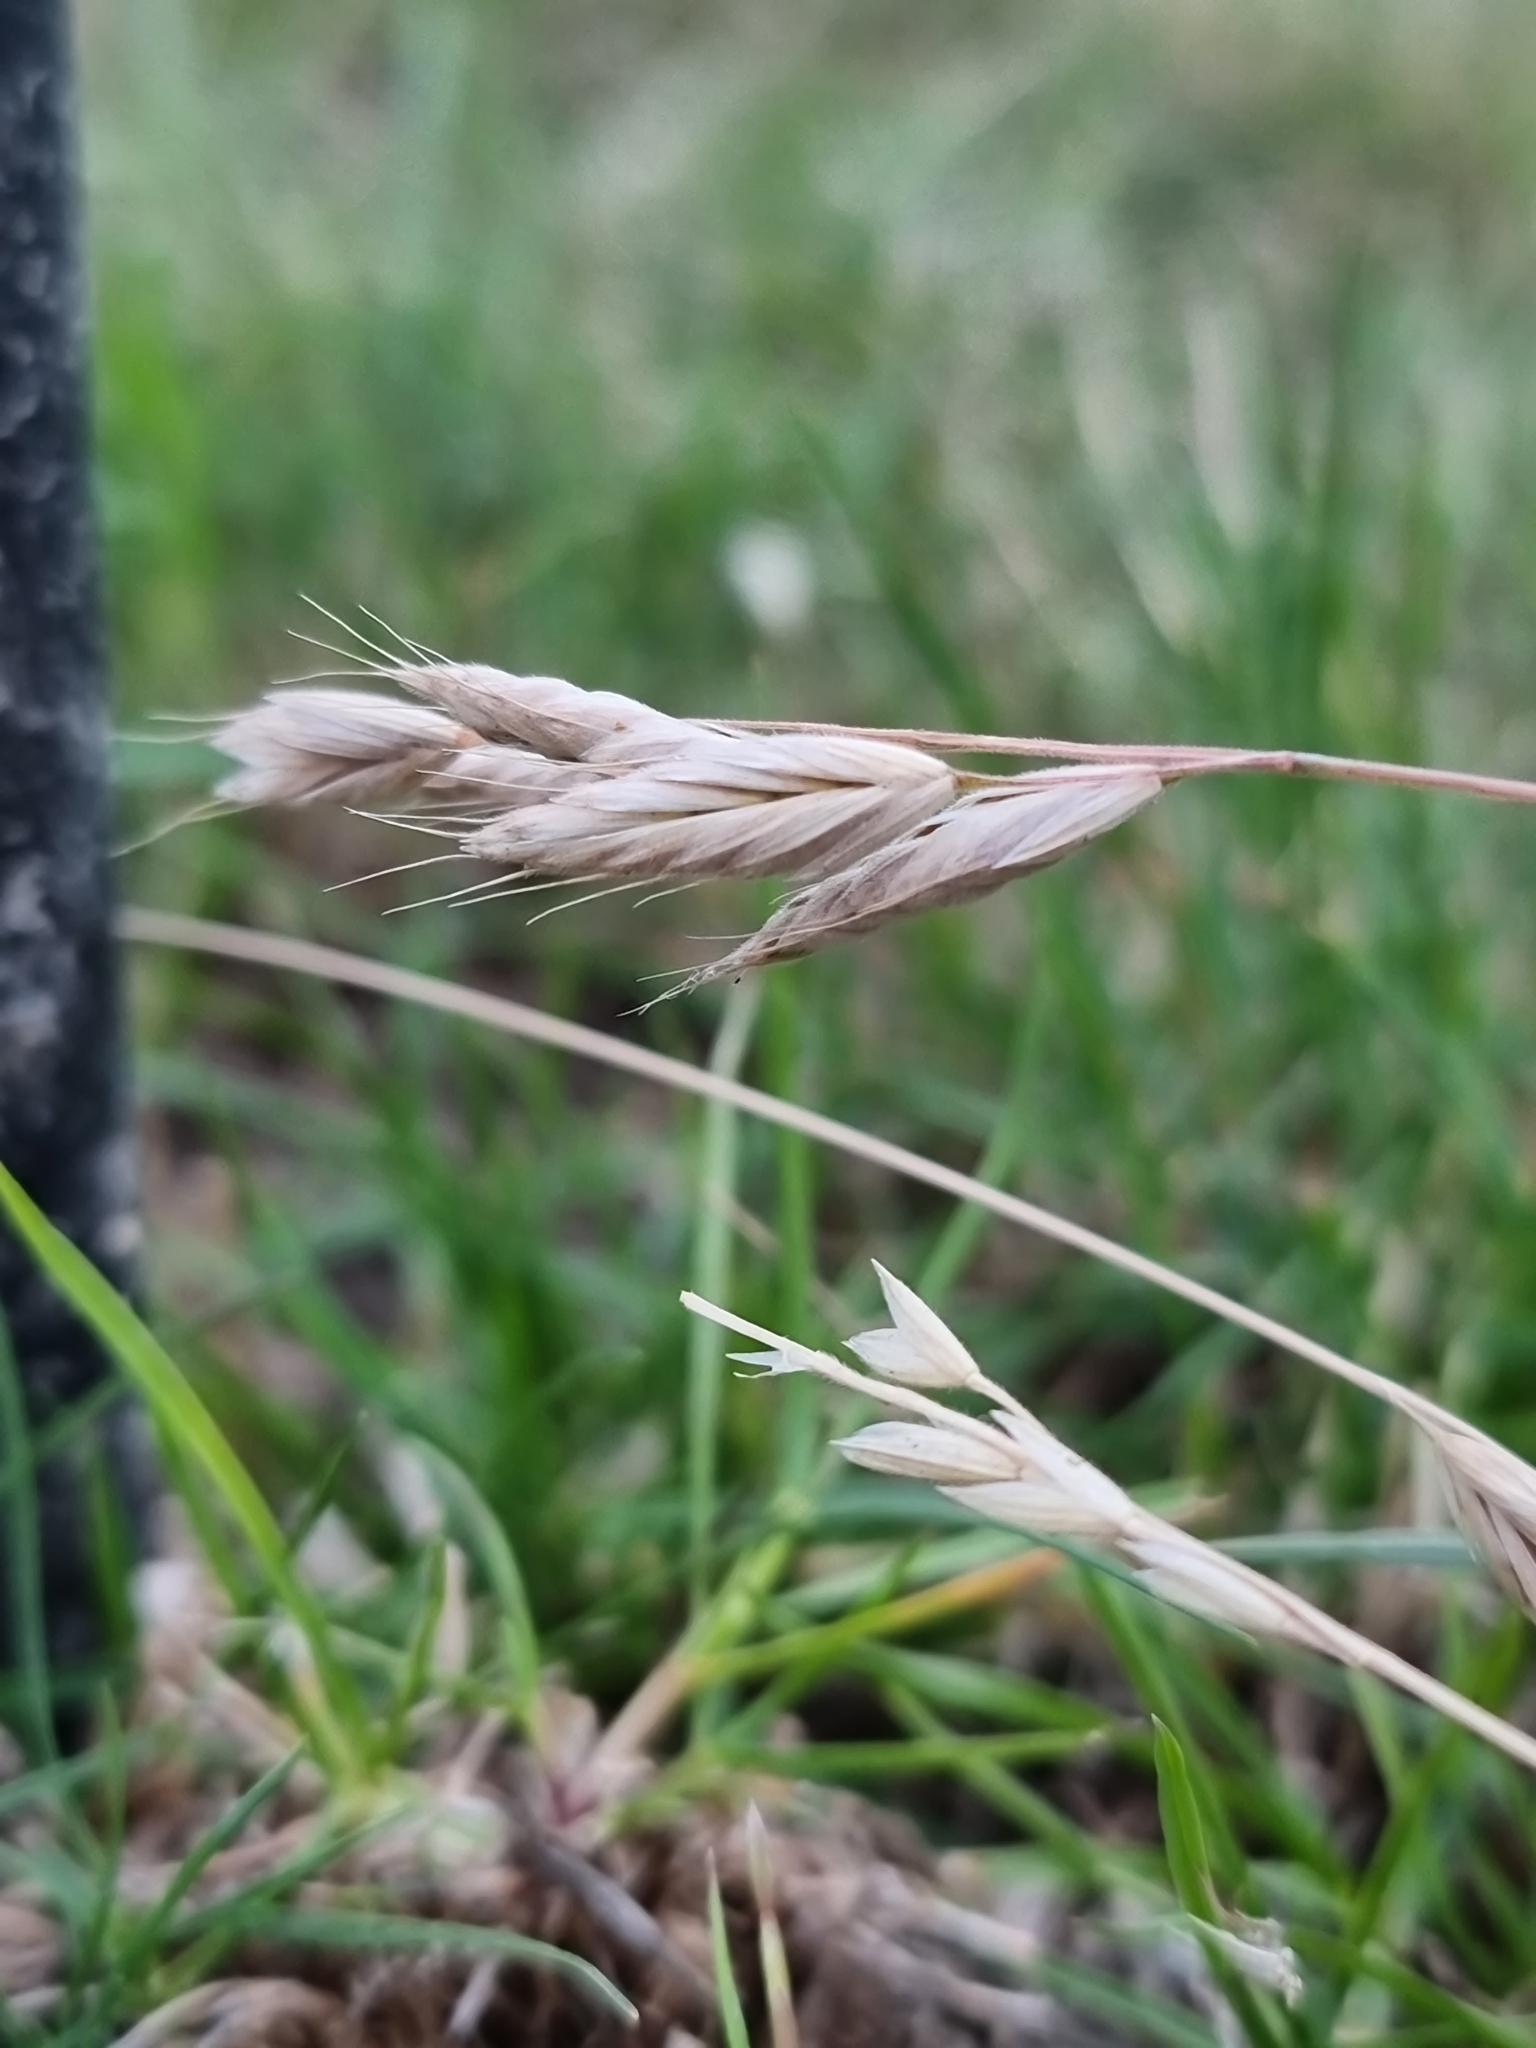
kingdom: Plantae
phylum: Tracheophyta
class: Liliopsida
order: Poales
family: Poaceae
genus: Bromus
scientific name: Bromus hordeaceus
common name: Soft brome
